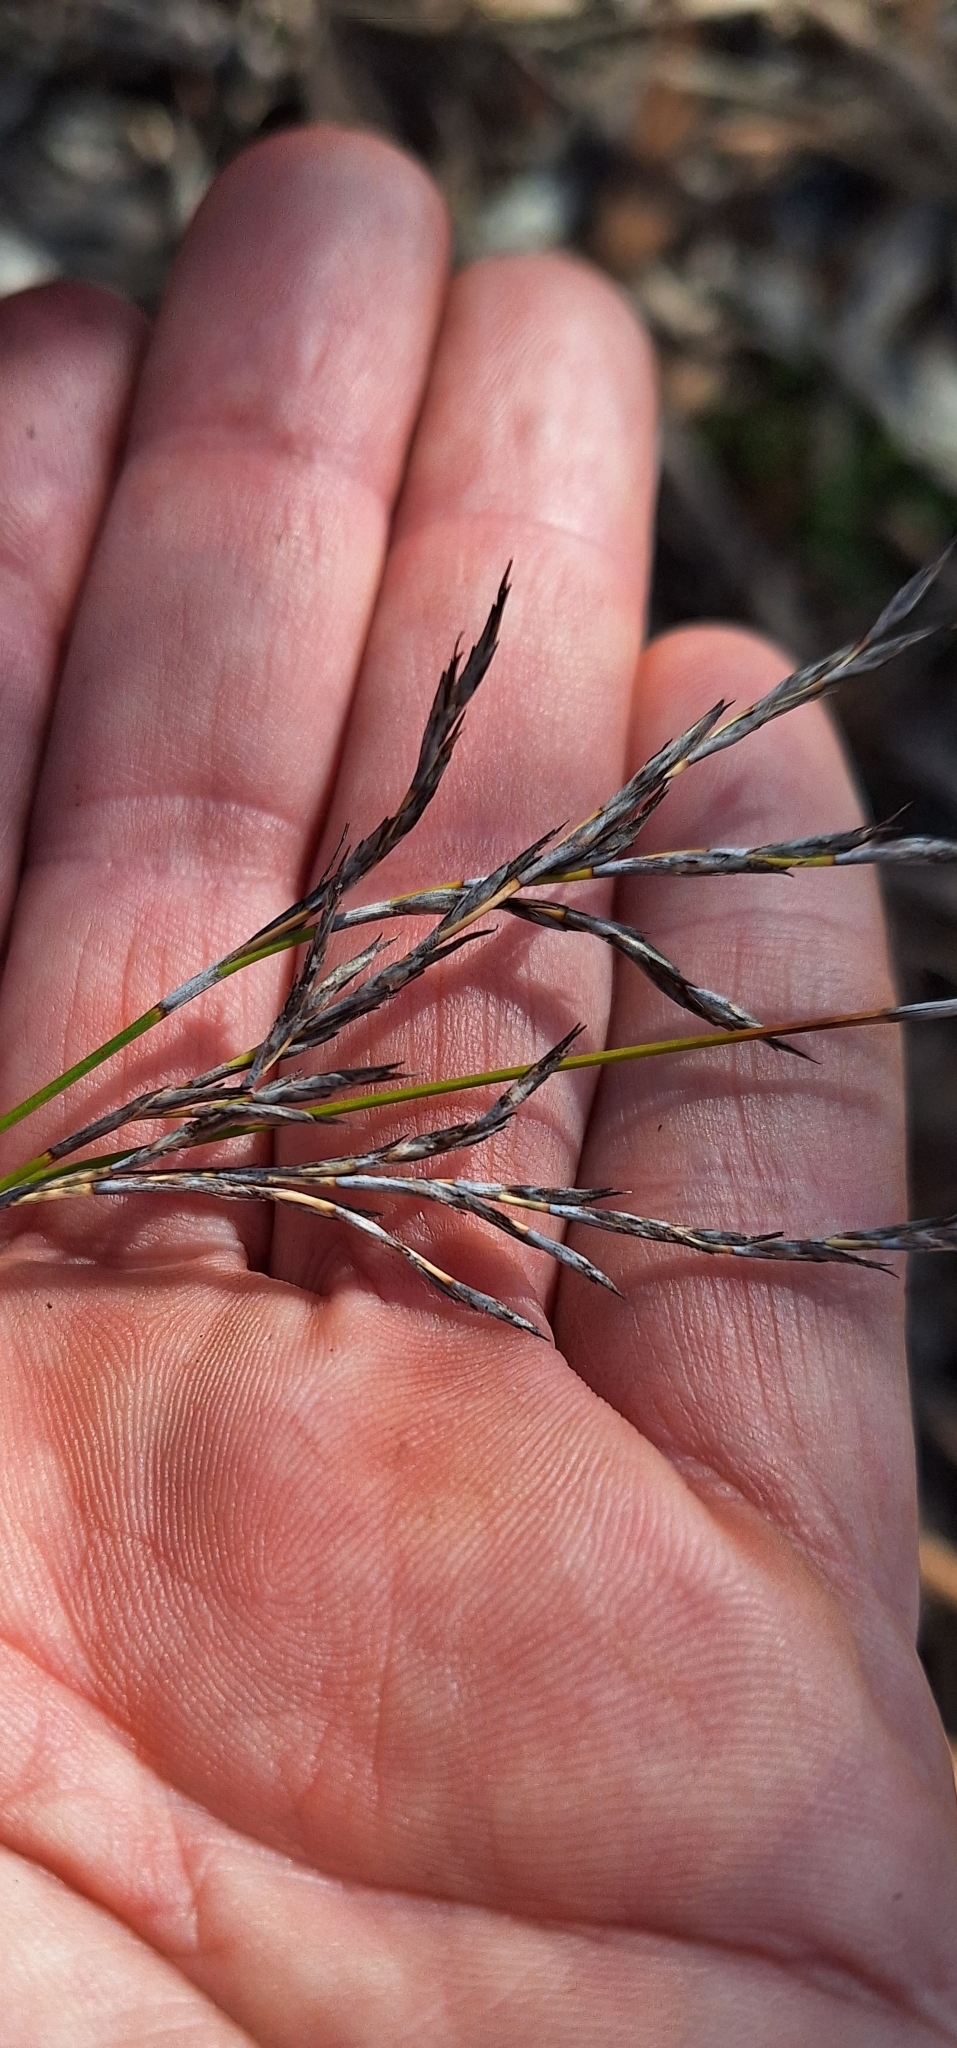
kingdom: Plantae
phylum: Tracheophyta
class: Liliopsida
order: Poales
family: Cyperaceae
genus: Lepidosperma
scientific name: Lepidosperma semiteres
